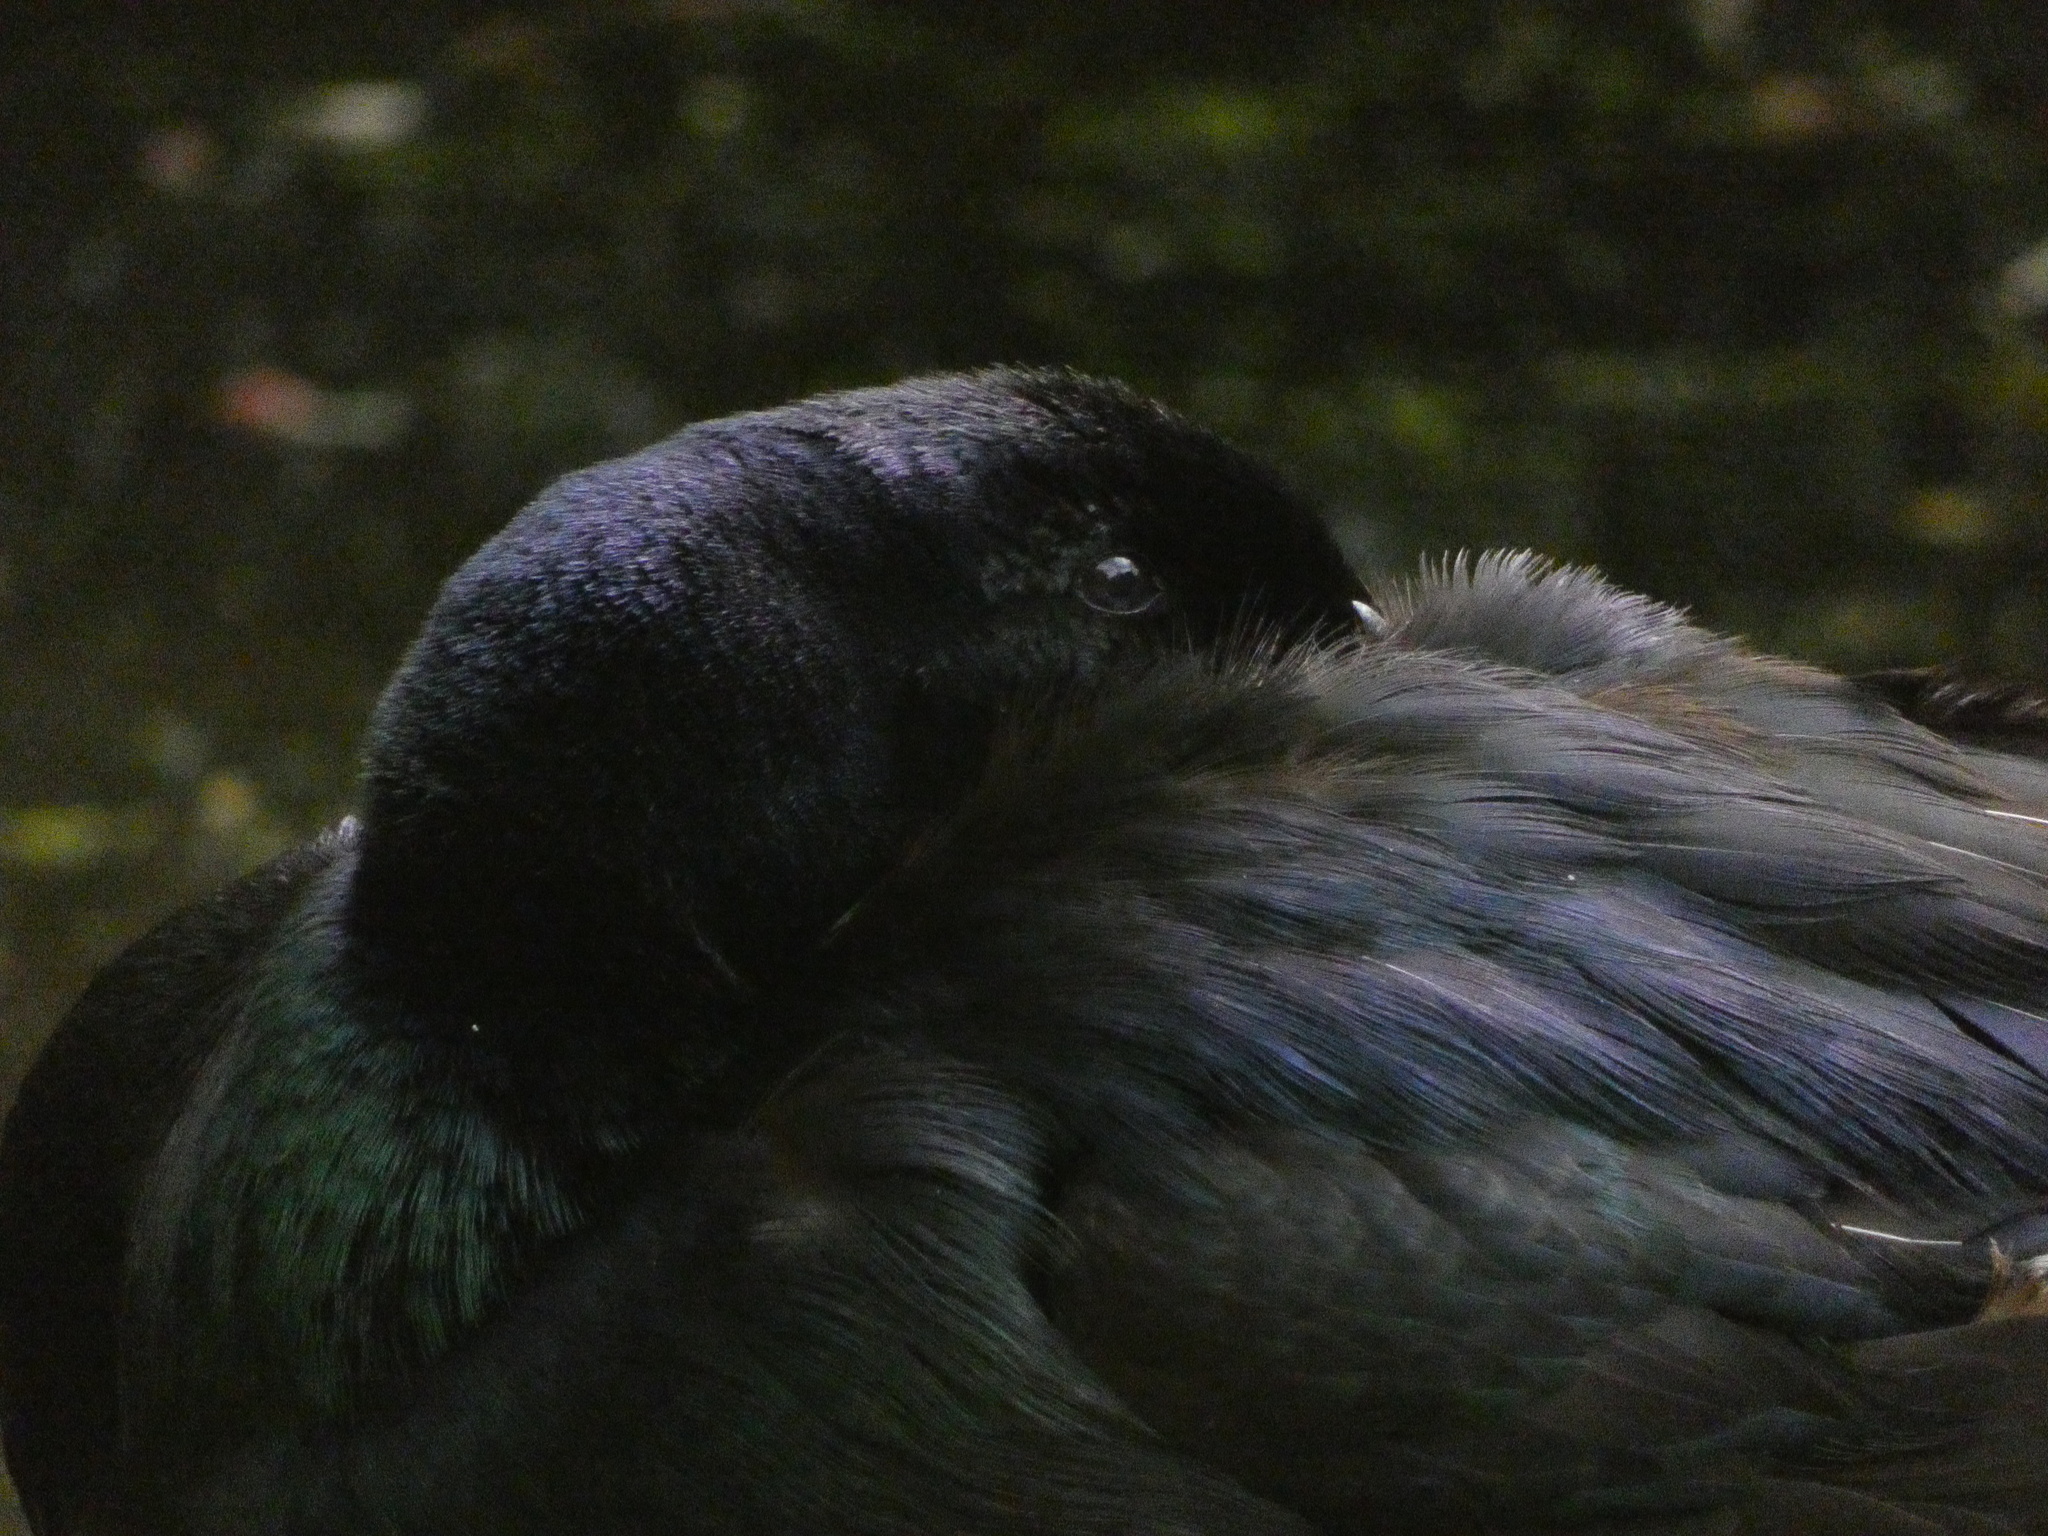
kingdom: Animalia
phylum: Chordata
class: Aves
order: Anseriformes
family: Anatidae
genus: Anas
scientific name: Anas platyrhynchos
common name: Mallard
